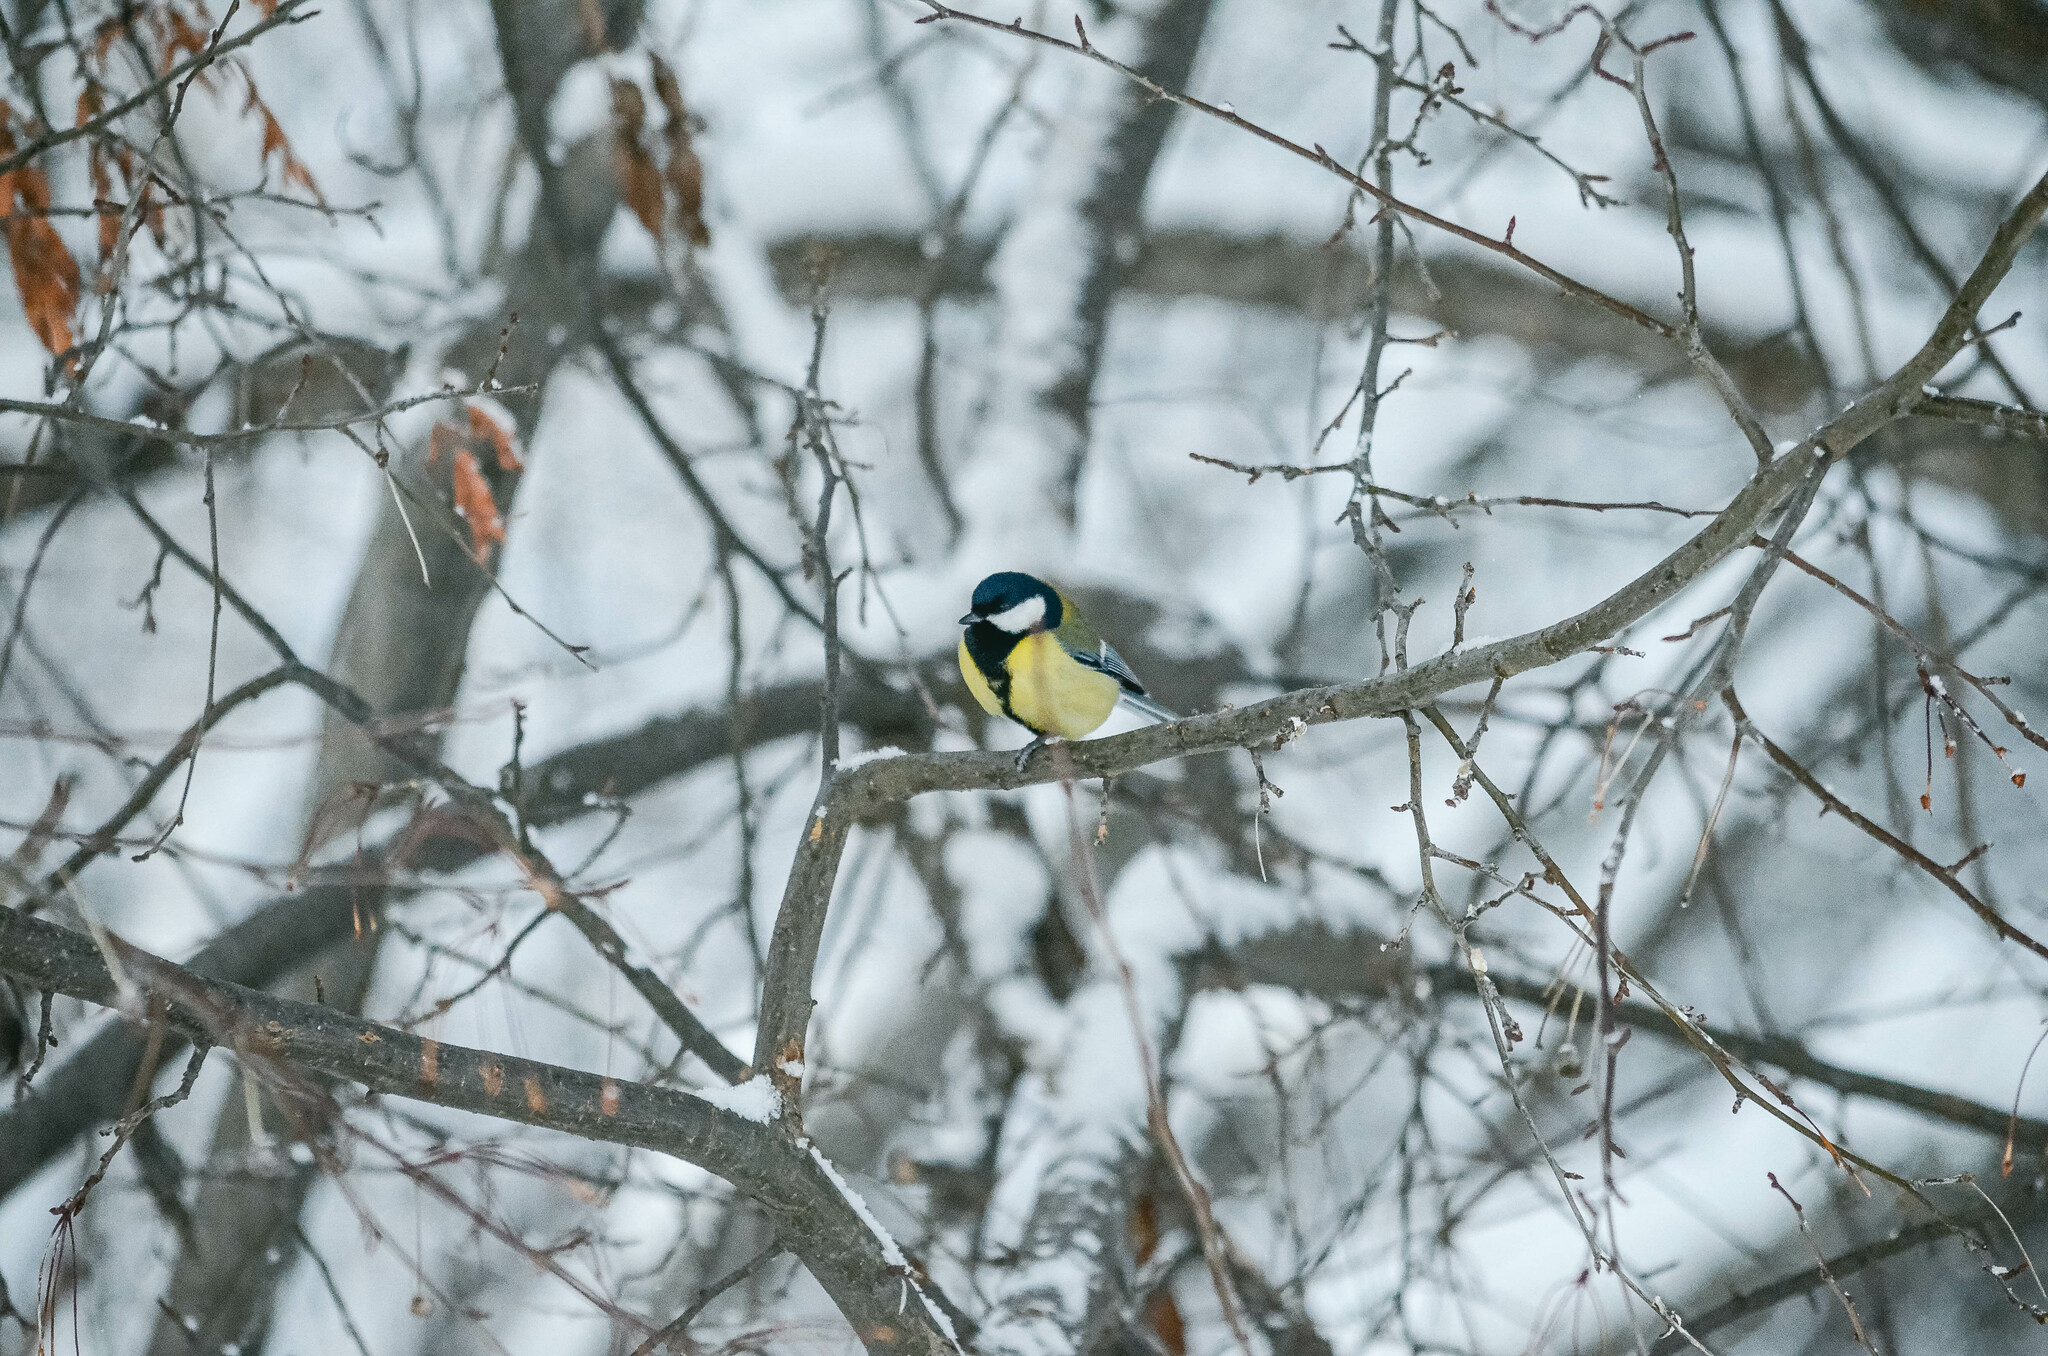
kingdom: Animalia
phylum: Chordata
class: Aves
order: Passeriformes
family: Paridae
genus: Parus
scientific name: Parus major
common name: Great tit
